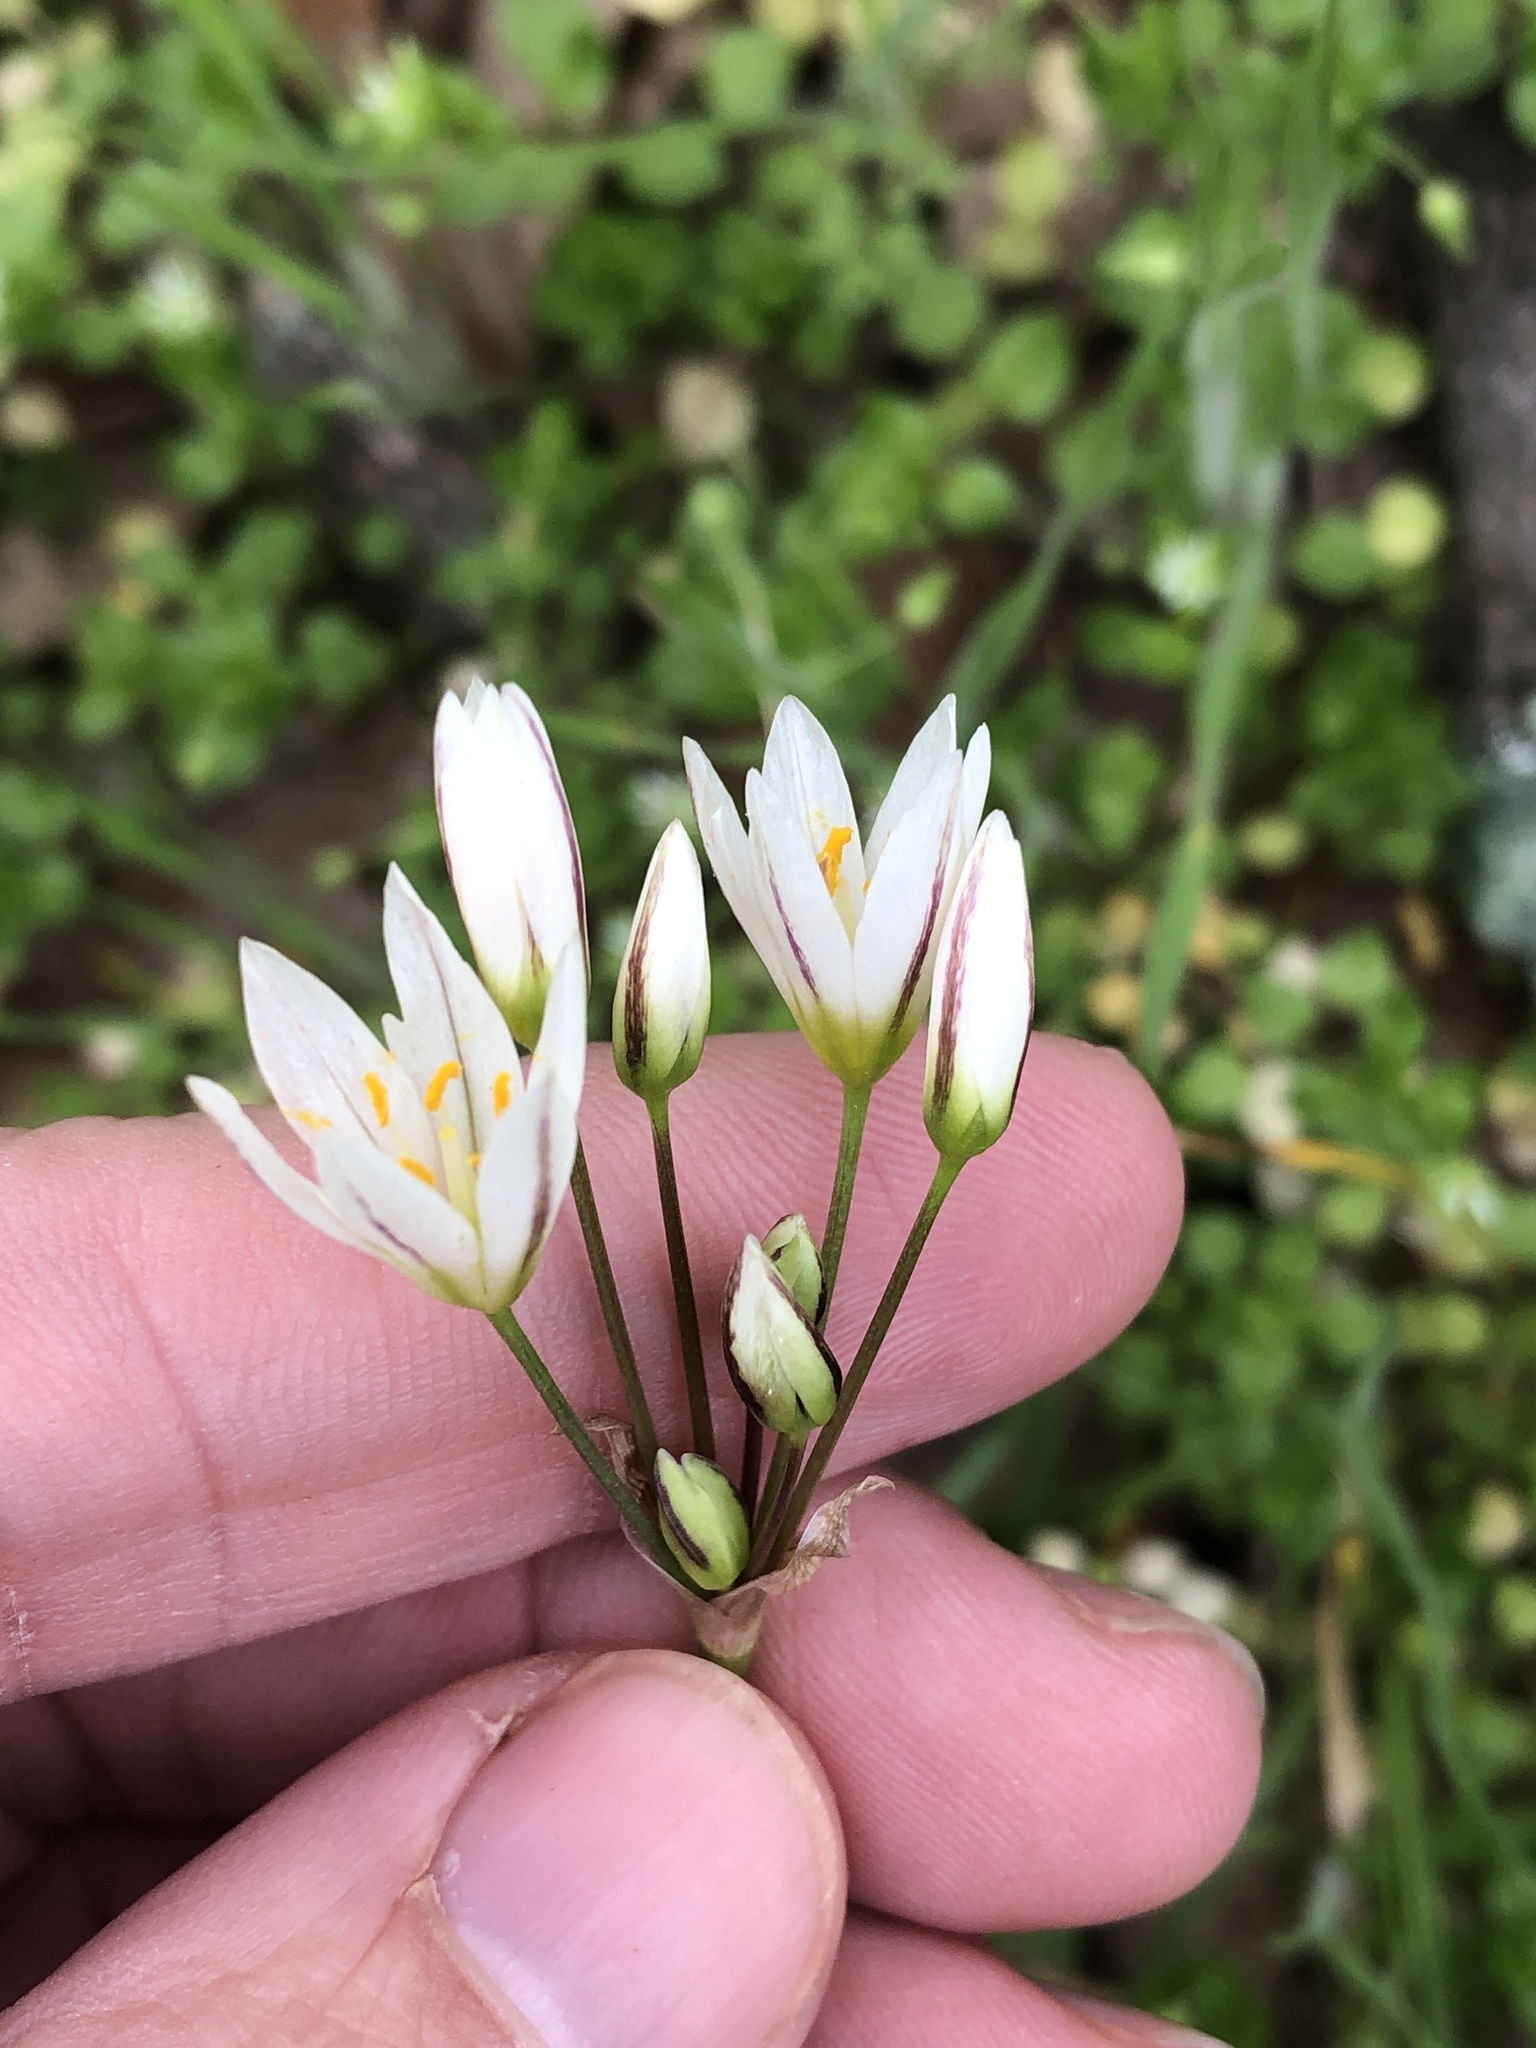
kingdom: Plantae
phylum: Tracheophyta
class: Liliopsida
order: Asparagales
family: Amaryllidaceae
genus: Nothoscordum
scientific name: Nothoscordum bivalve
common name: Crow-poison
